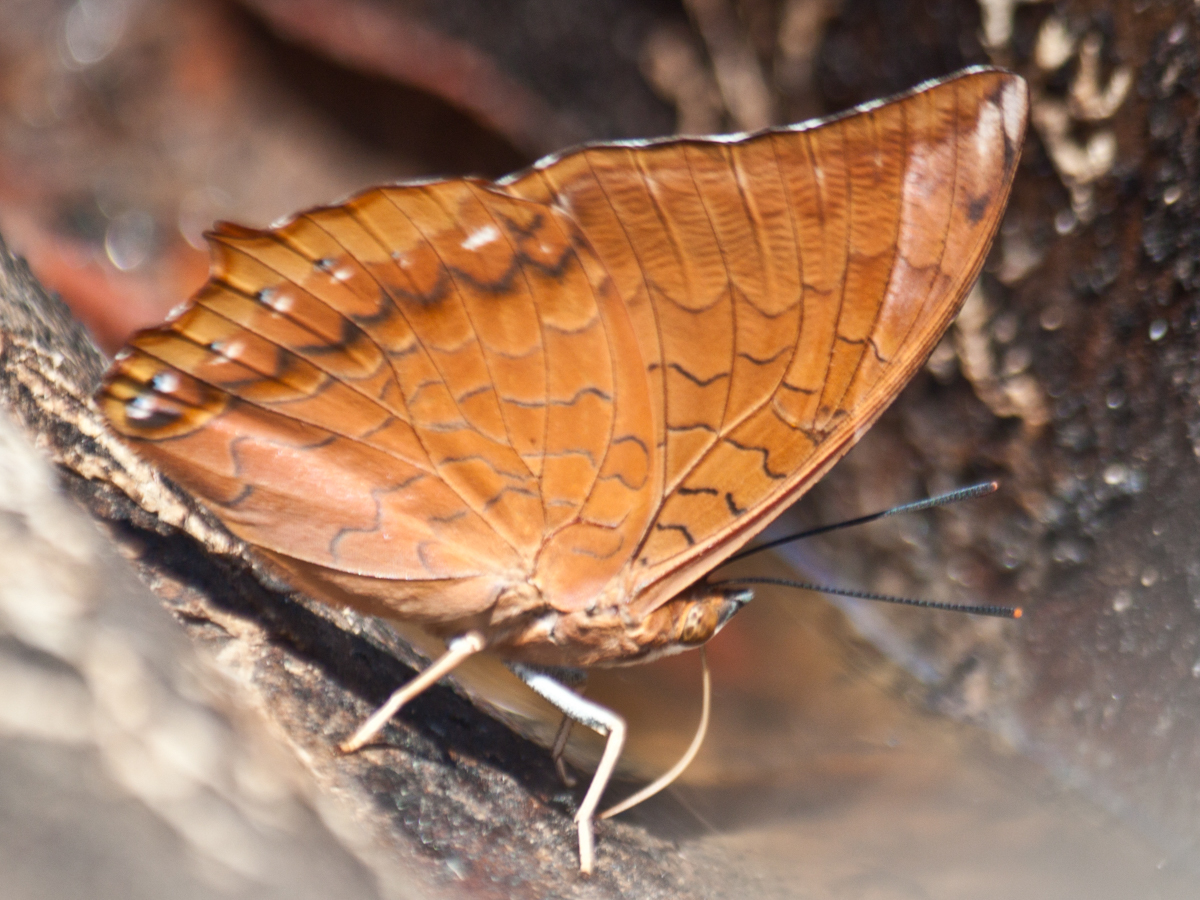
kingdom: Animalia
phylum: Arthropoda
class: Insecta
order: Lepidoptera
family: Nymphalidae
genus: Charaxes
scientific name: Charaxes bernardus
